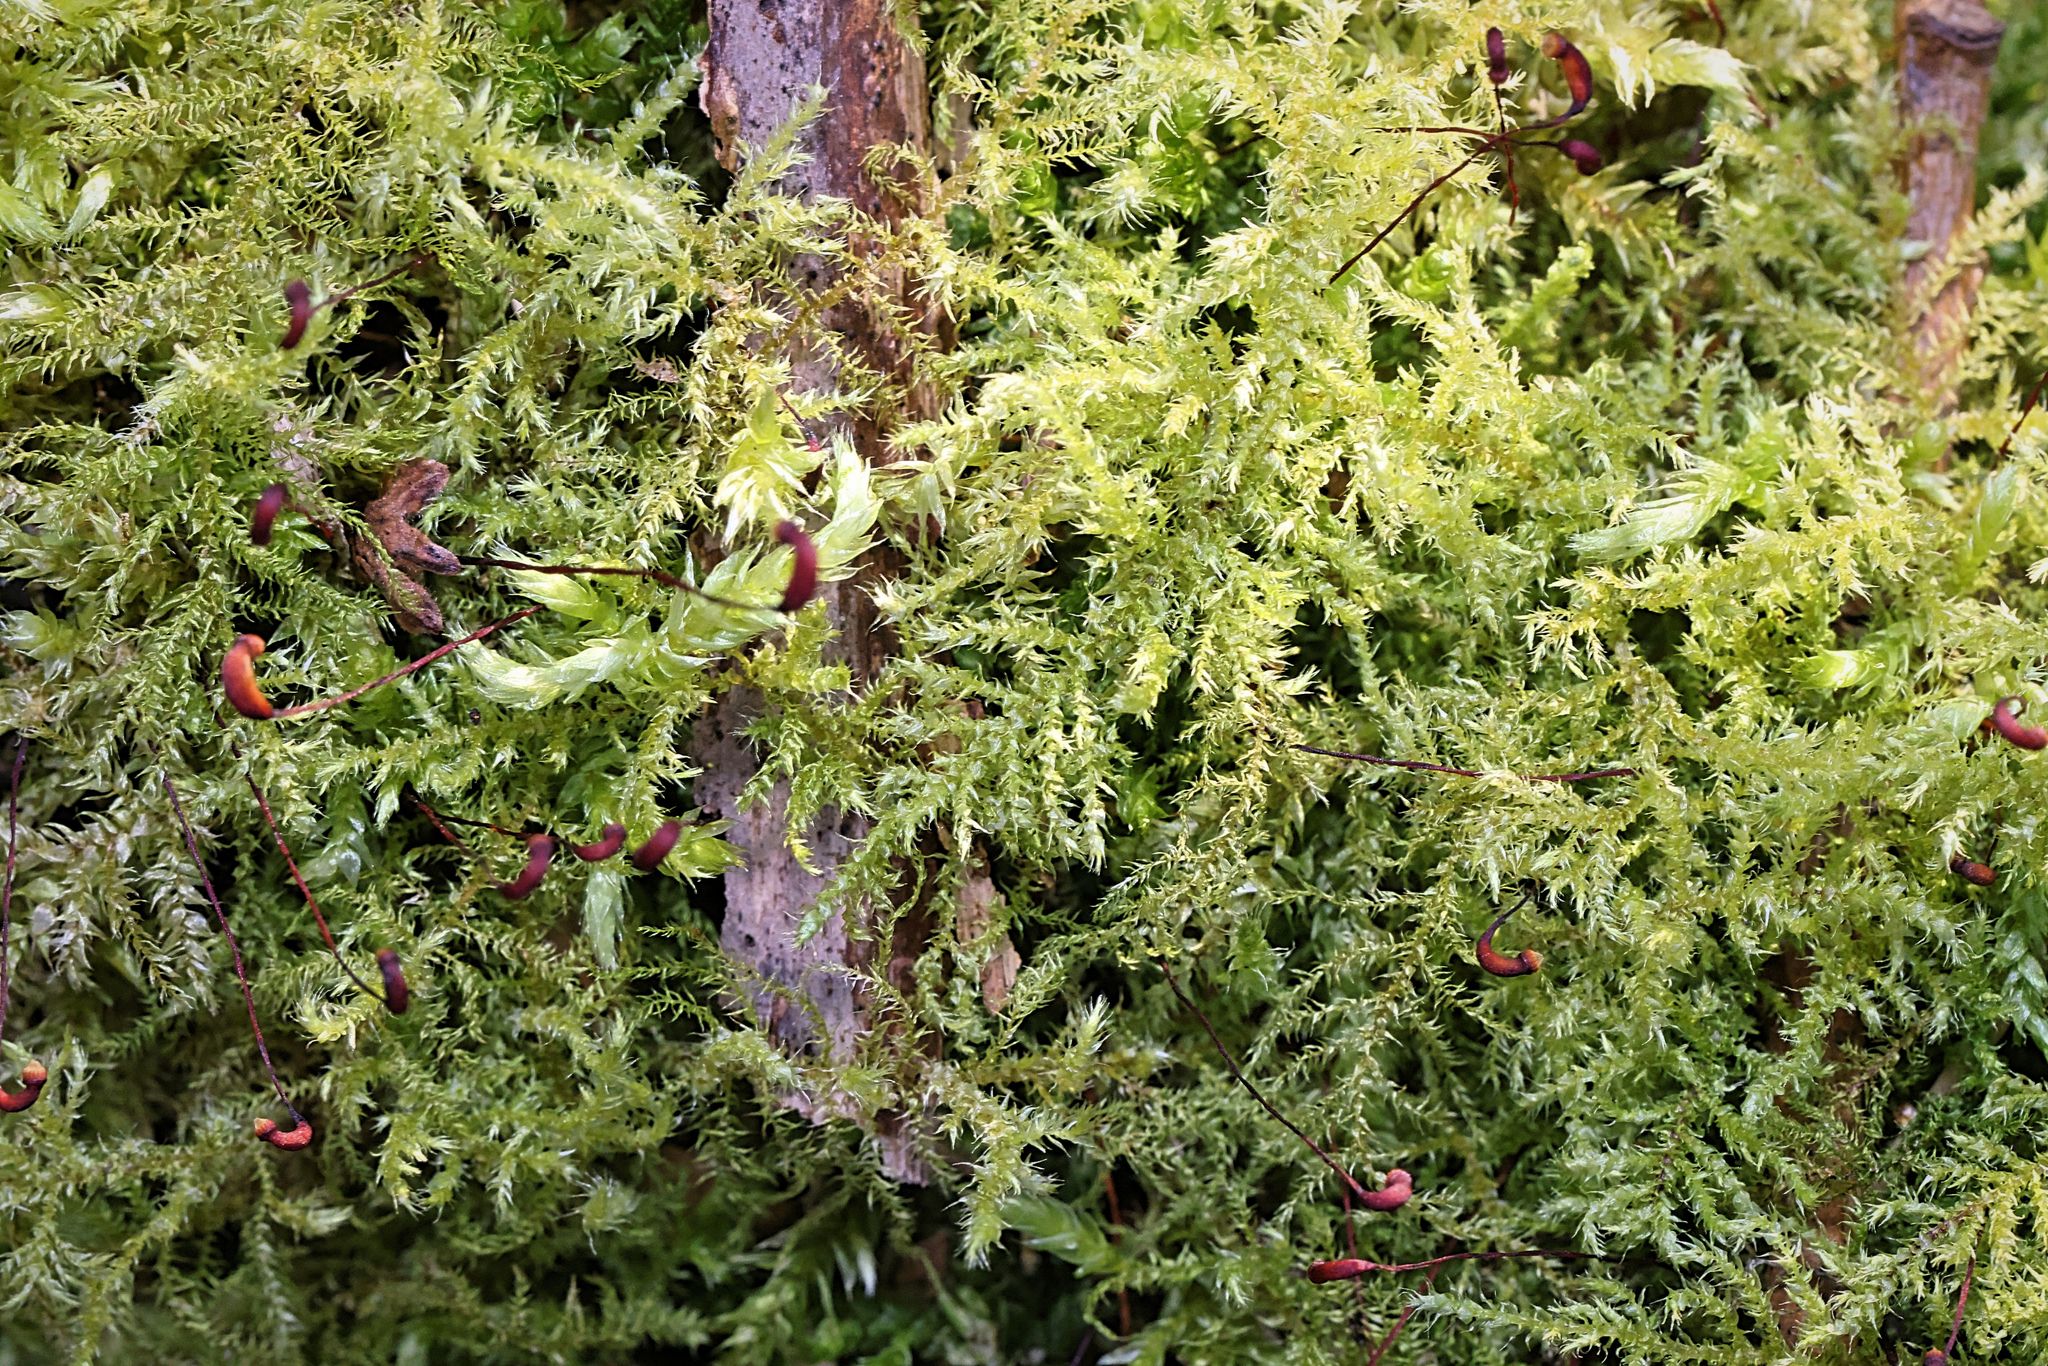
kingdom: Plantae
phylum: Bryophyta
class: Bryopsida
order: Hypnales
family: Brachytheciaceae
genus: Kindbergia
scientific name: Kindbergia praelonga
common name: Slender beaked moss
